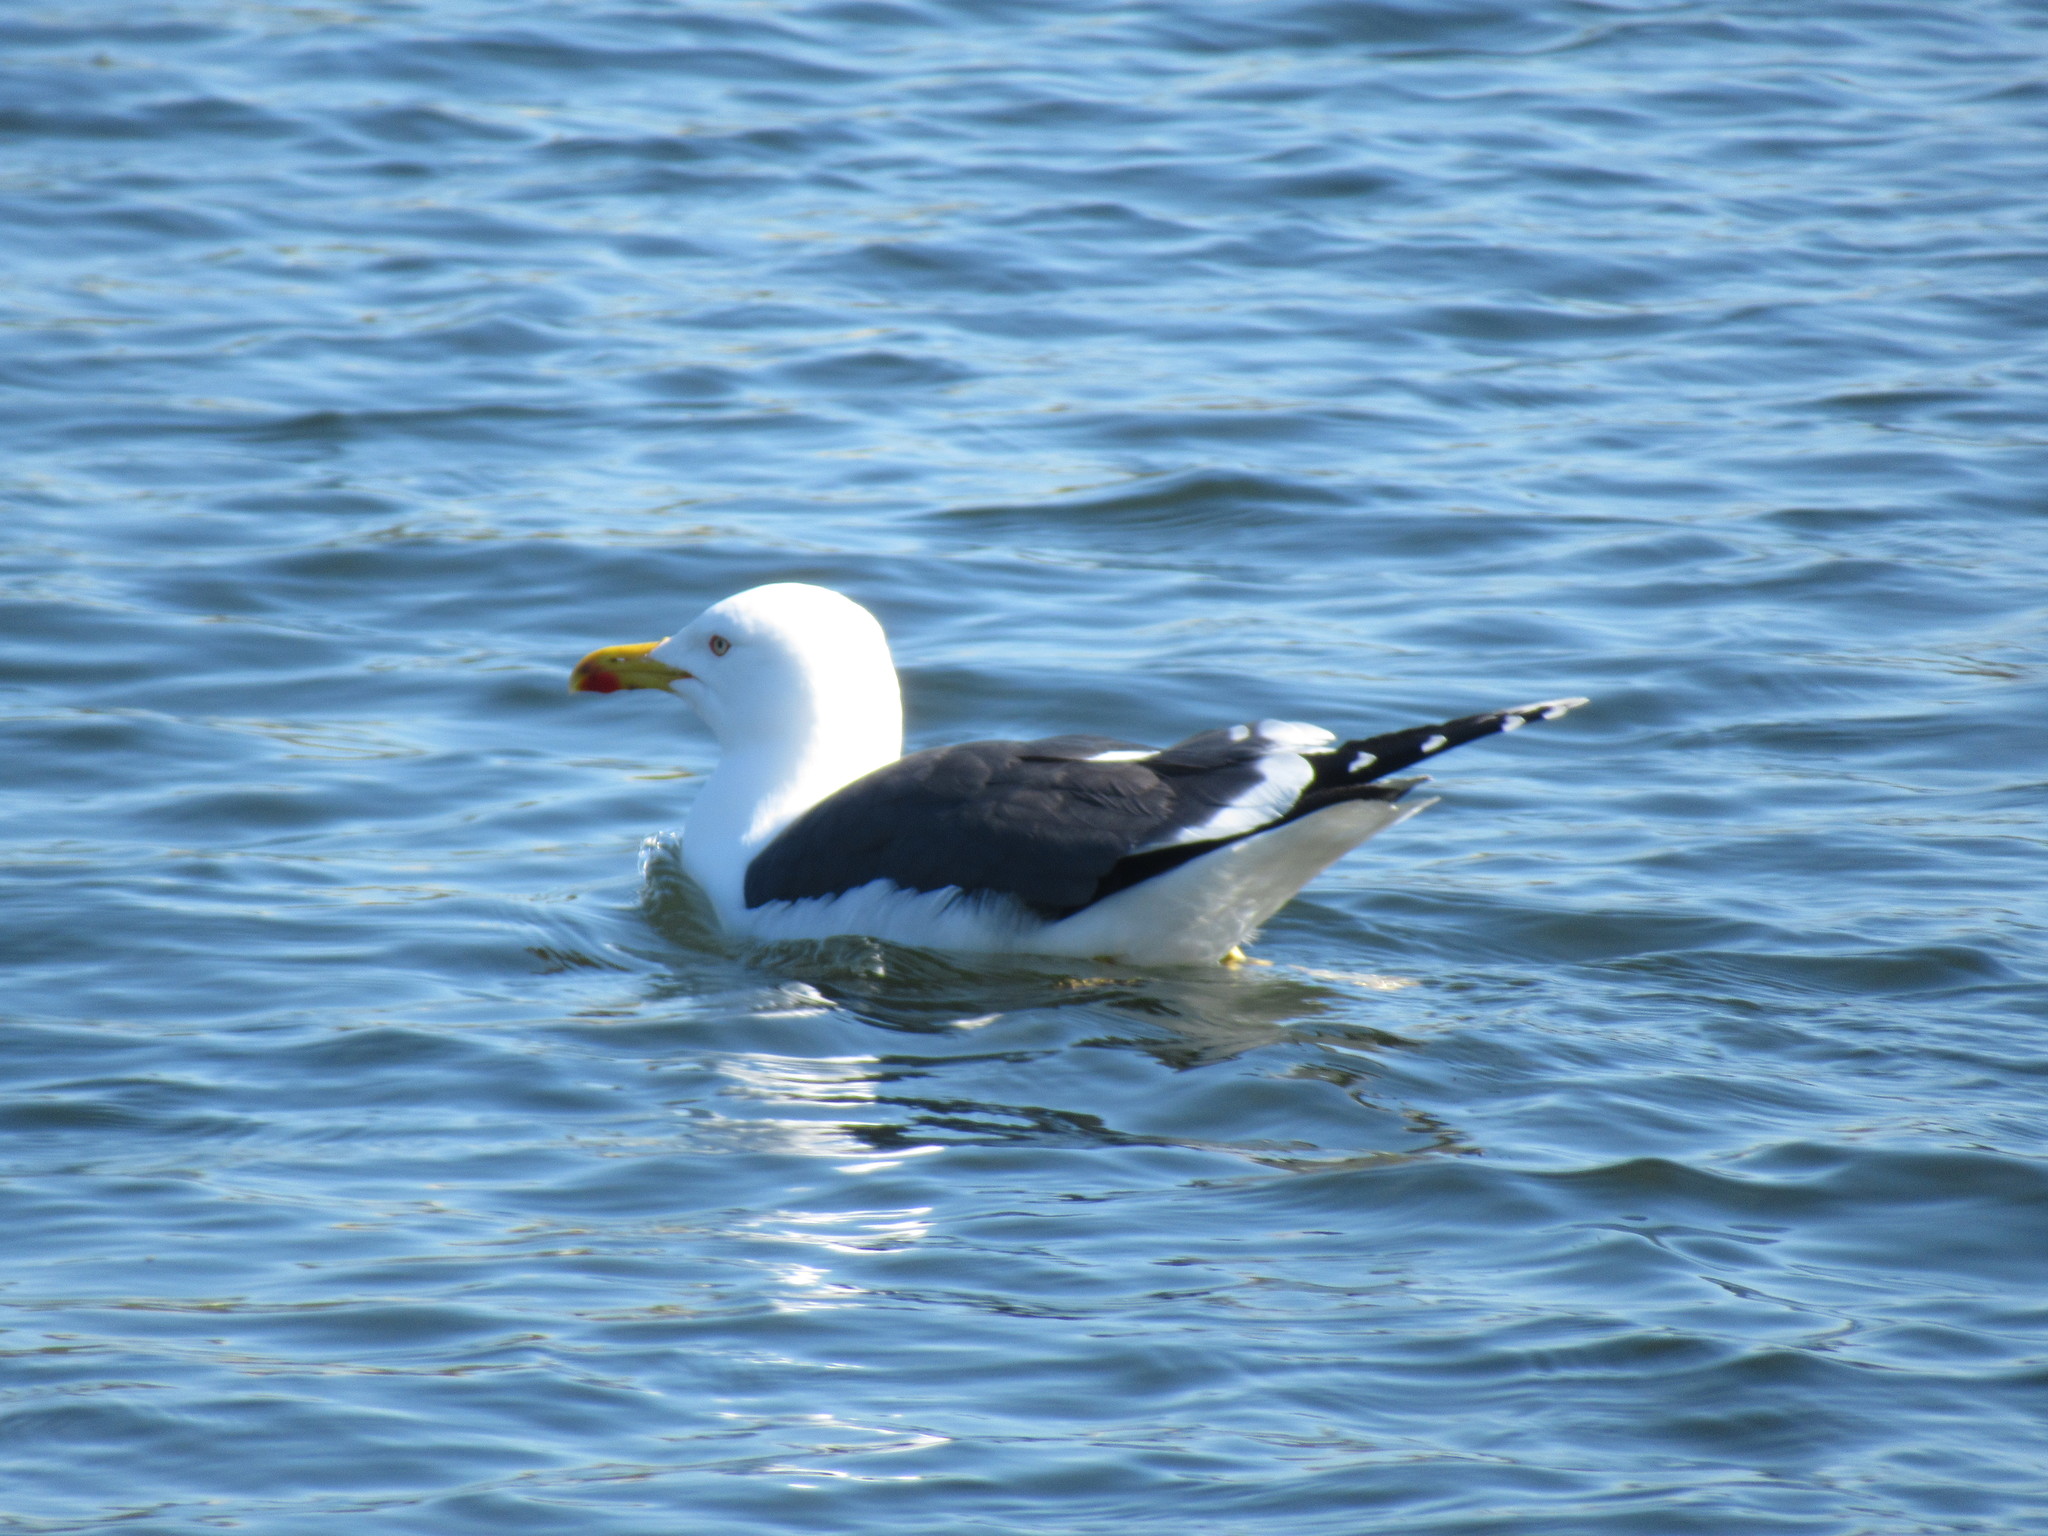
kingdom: Animalia
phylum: Chordata
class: Aves
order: Charadriiformes
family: Laridae
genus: Larus
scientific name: Larus fuscus
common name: Lesser black-backed gull
